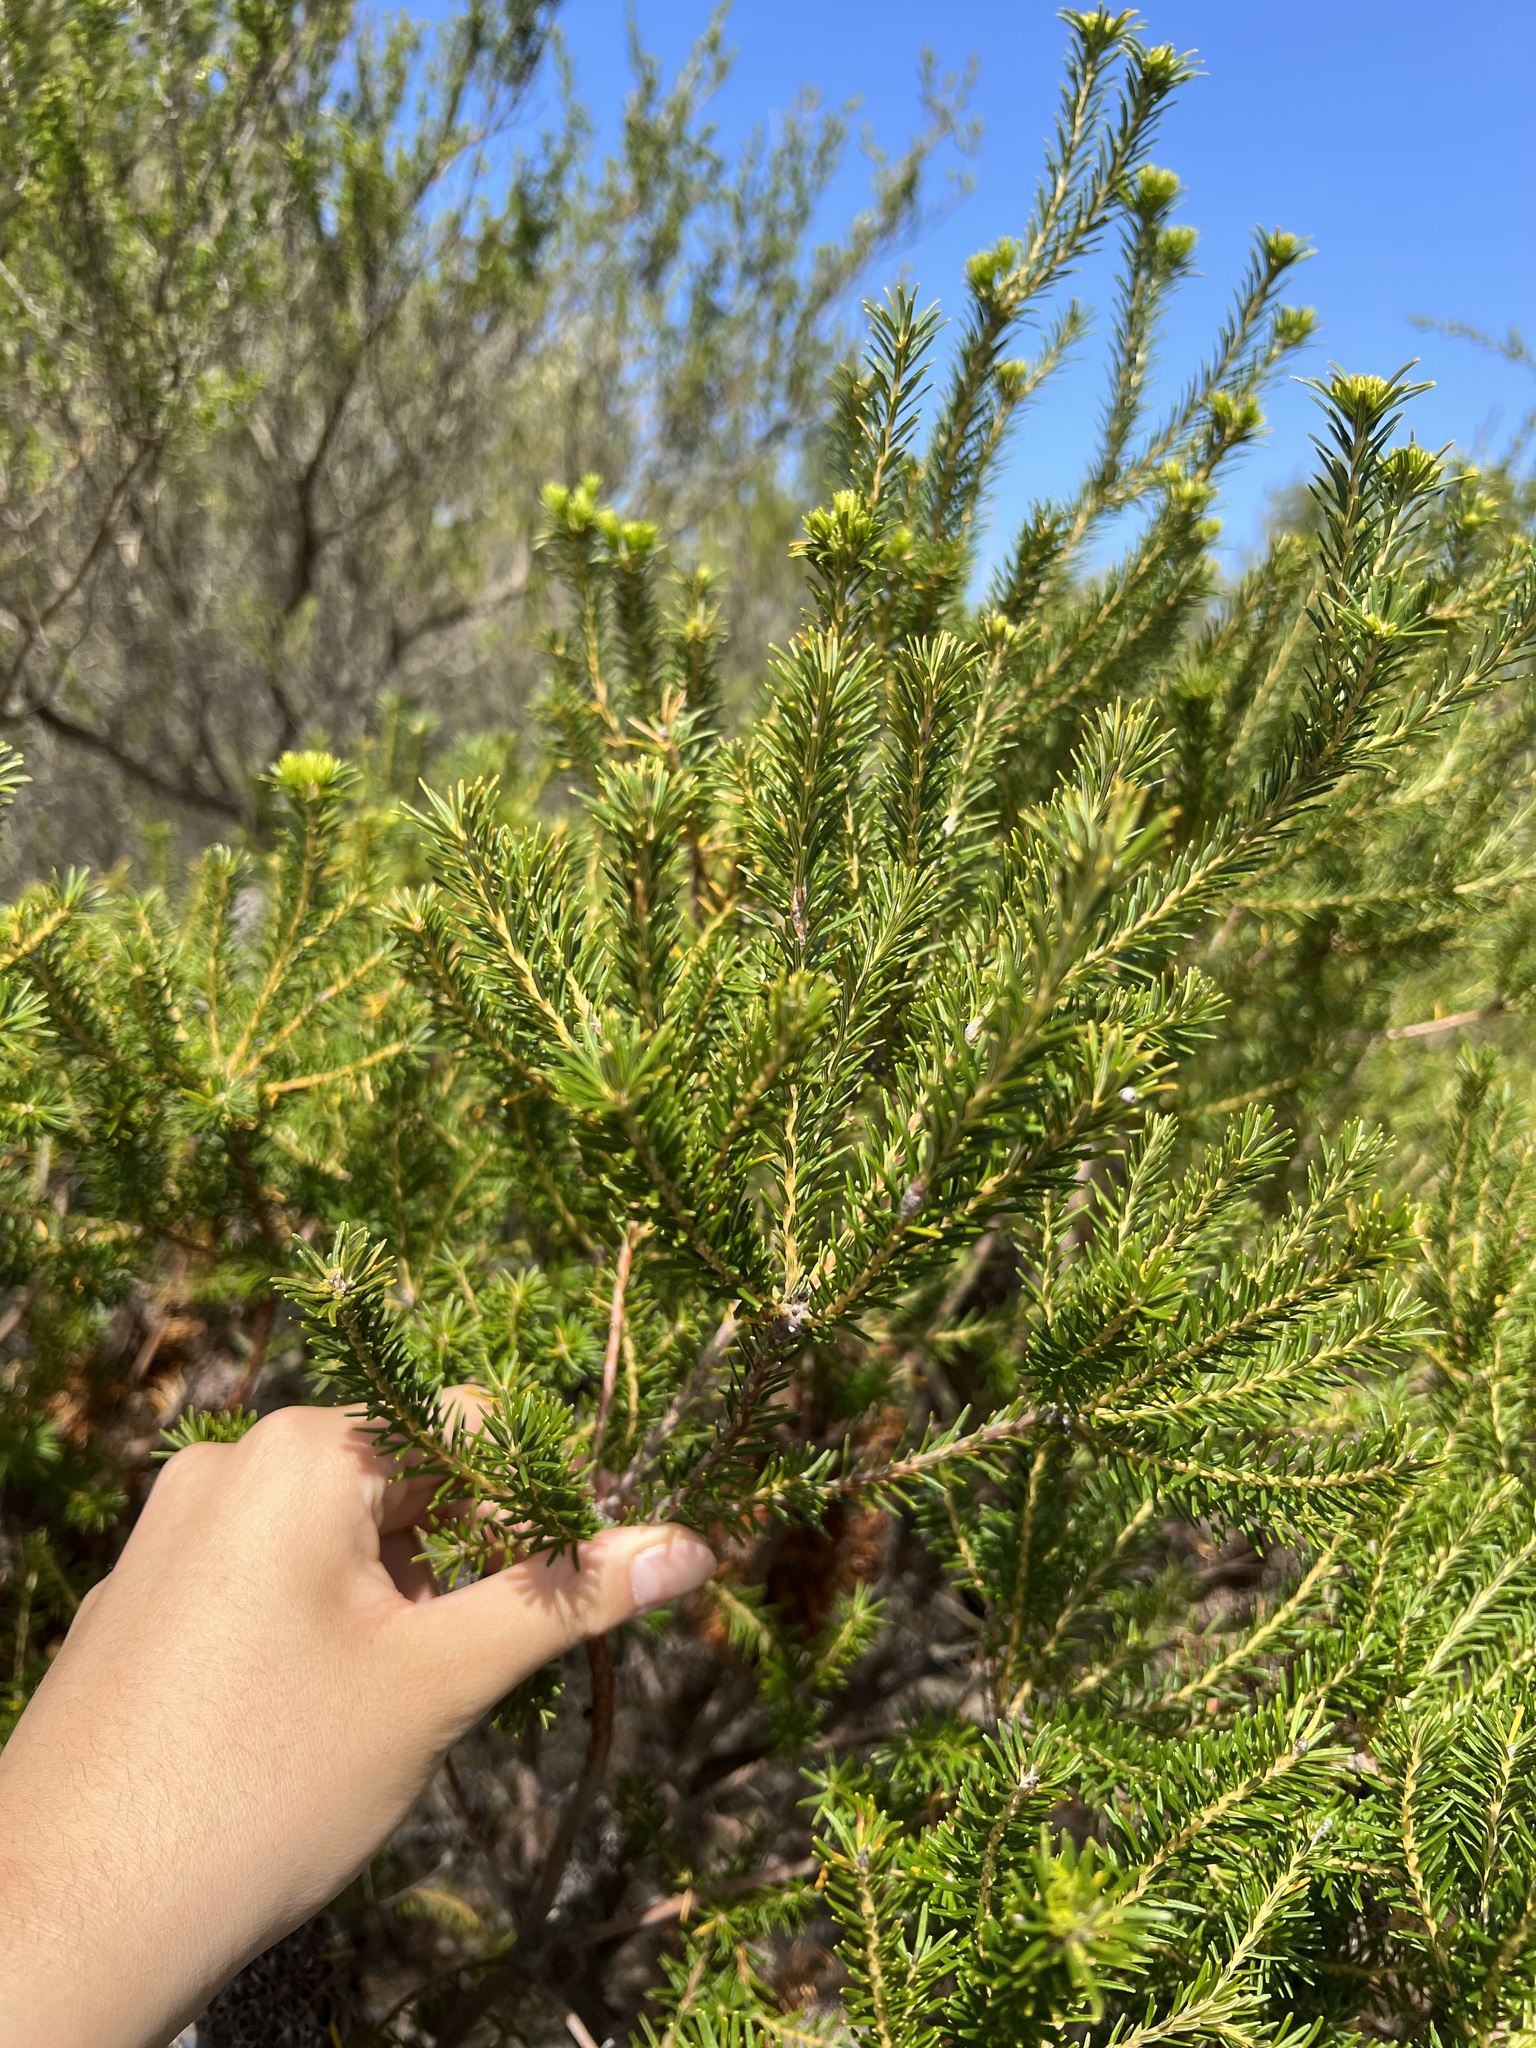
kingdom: Plantae
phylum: Tracheophyta
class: Magnoliopsida
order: Proteales
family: Proteaceae
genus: Banksia
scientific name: Banksia ericifolia
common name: Heath-leaf banksia
